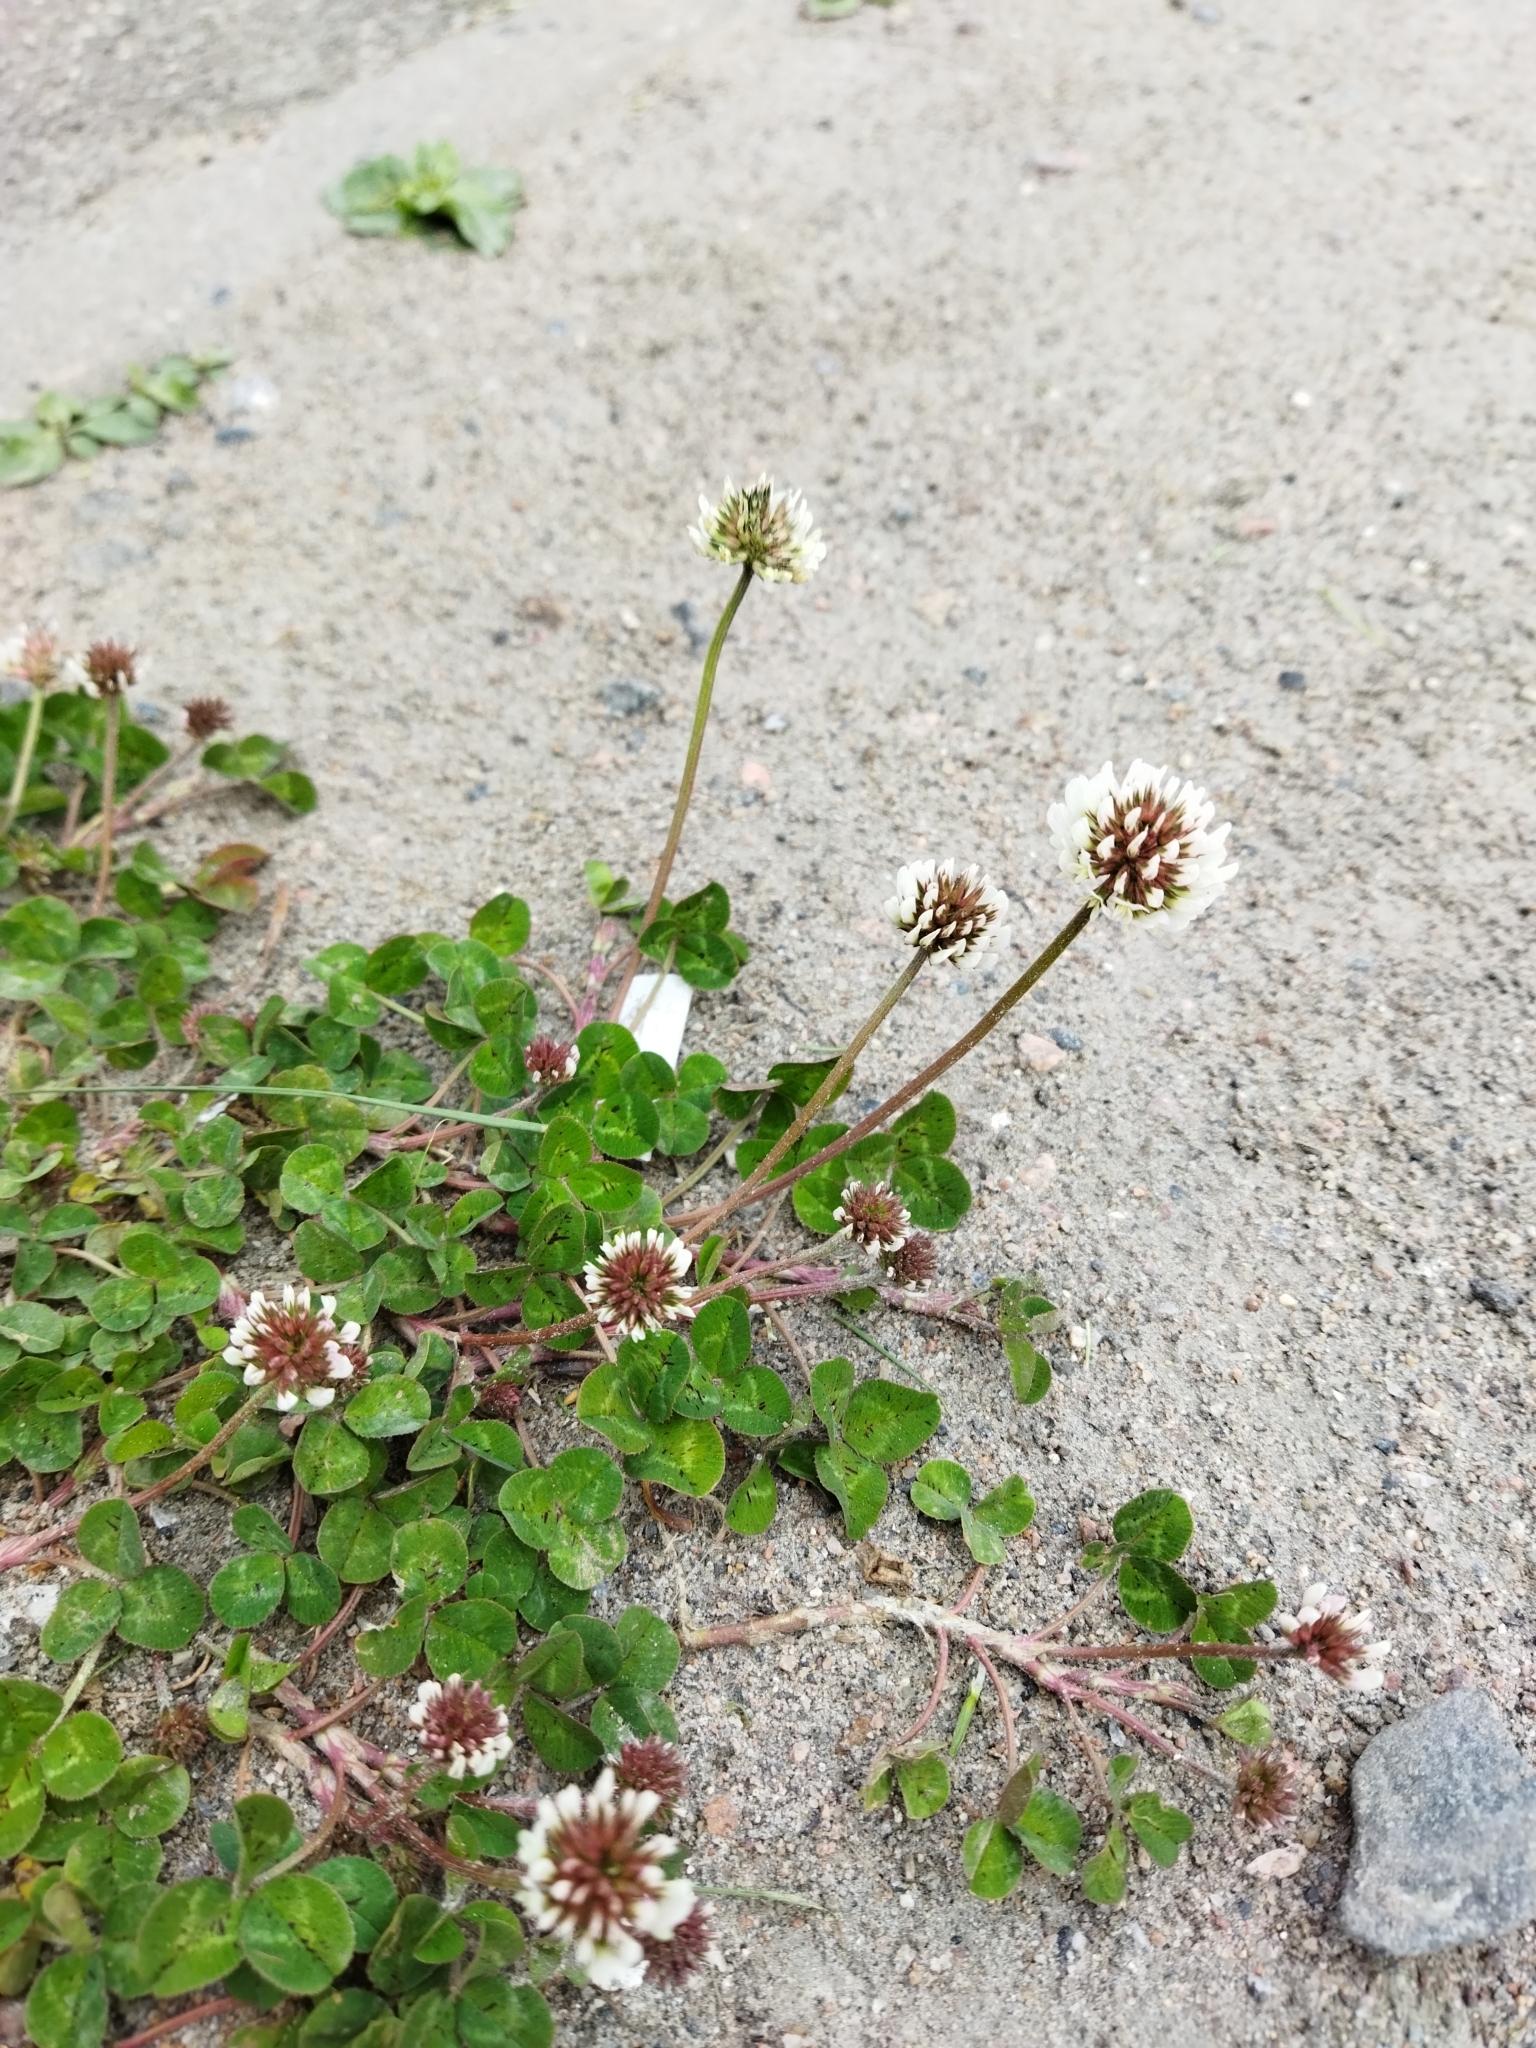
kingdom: Plantae
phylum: Tracheophyta
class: Magnoliopsida
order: Fabales
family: Fabaceae
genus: Trifolium
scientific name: Trifolium repens
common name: White clover
